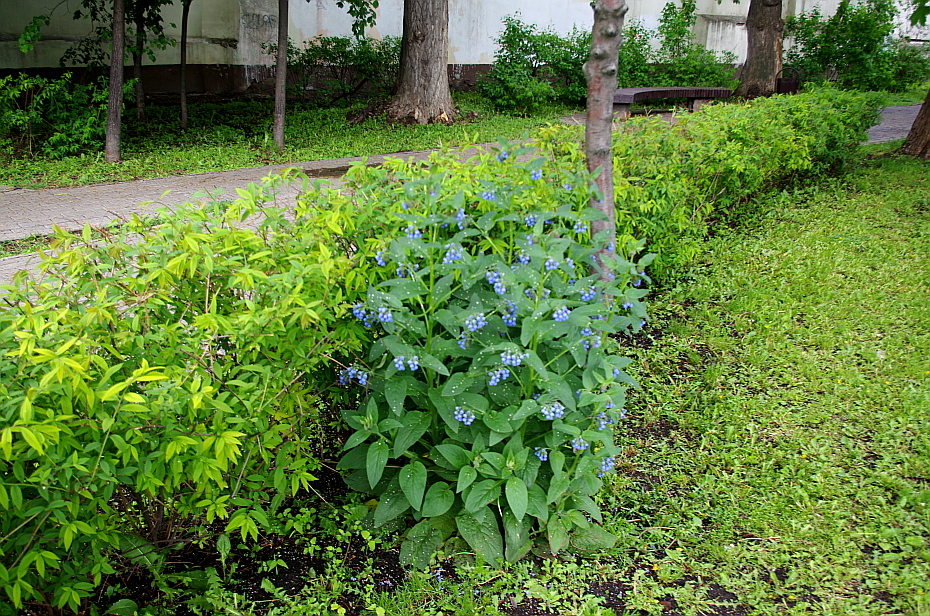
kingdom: Plantae
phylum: Tracheophyta
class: Magnoliopsida
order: Boraginales
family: Boraginaceae
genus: Symphytum
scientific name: Symphytum caucasicum
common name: Caucasian comfrey
